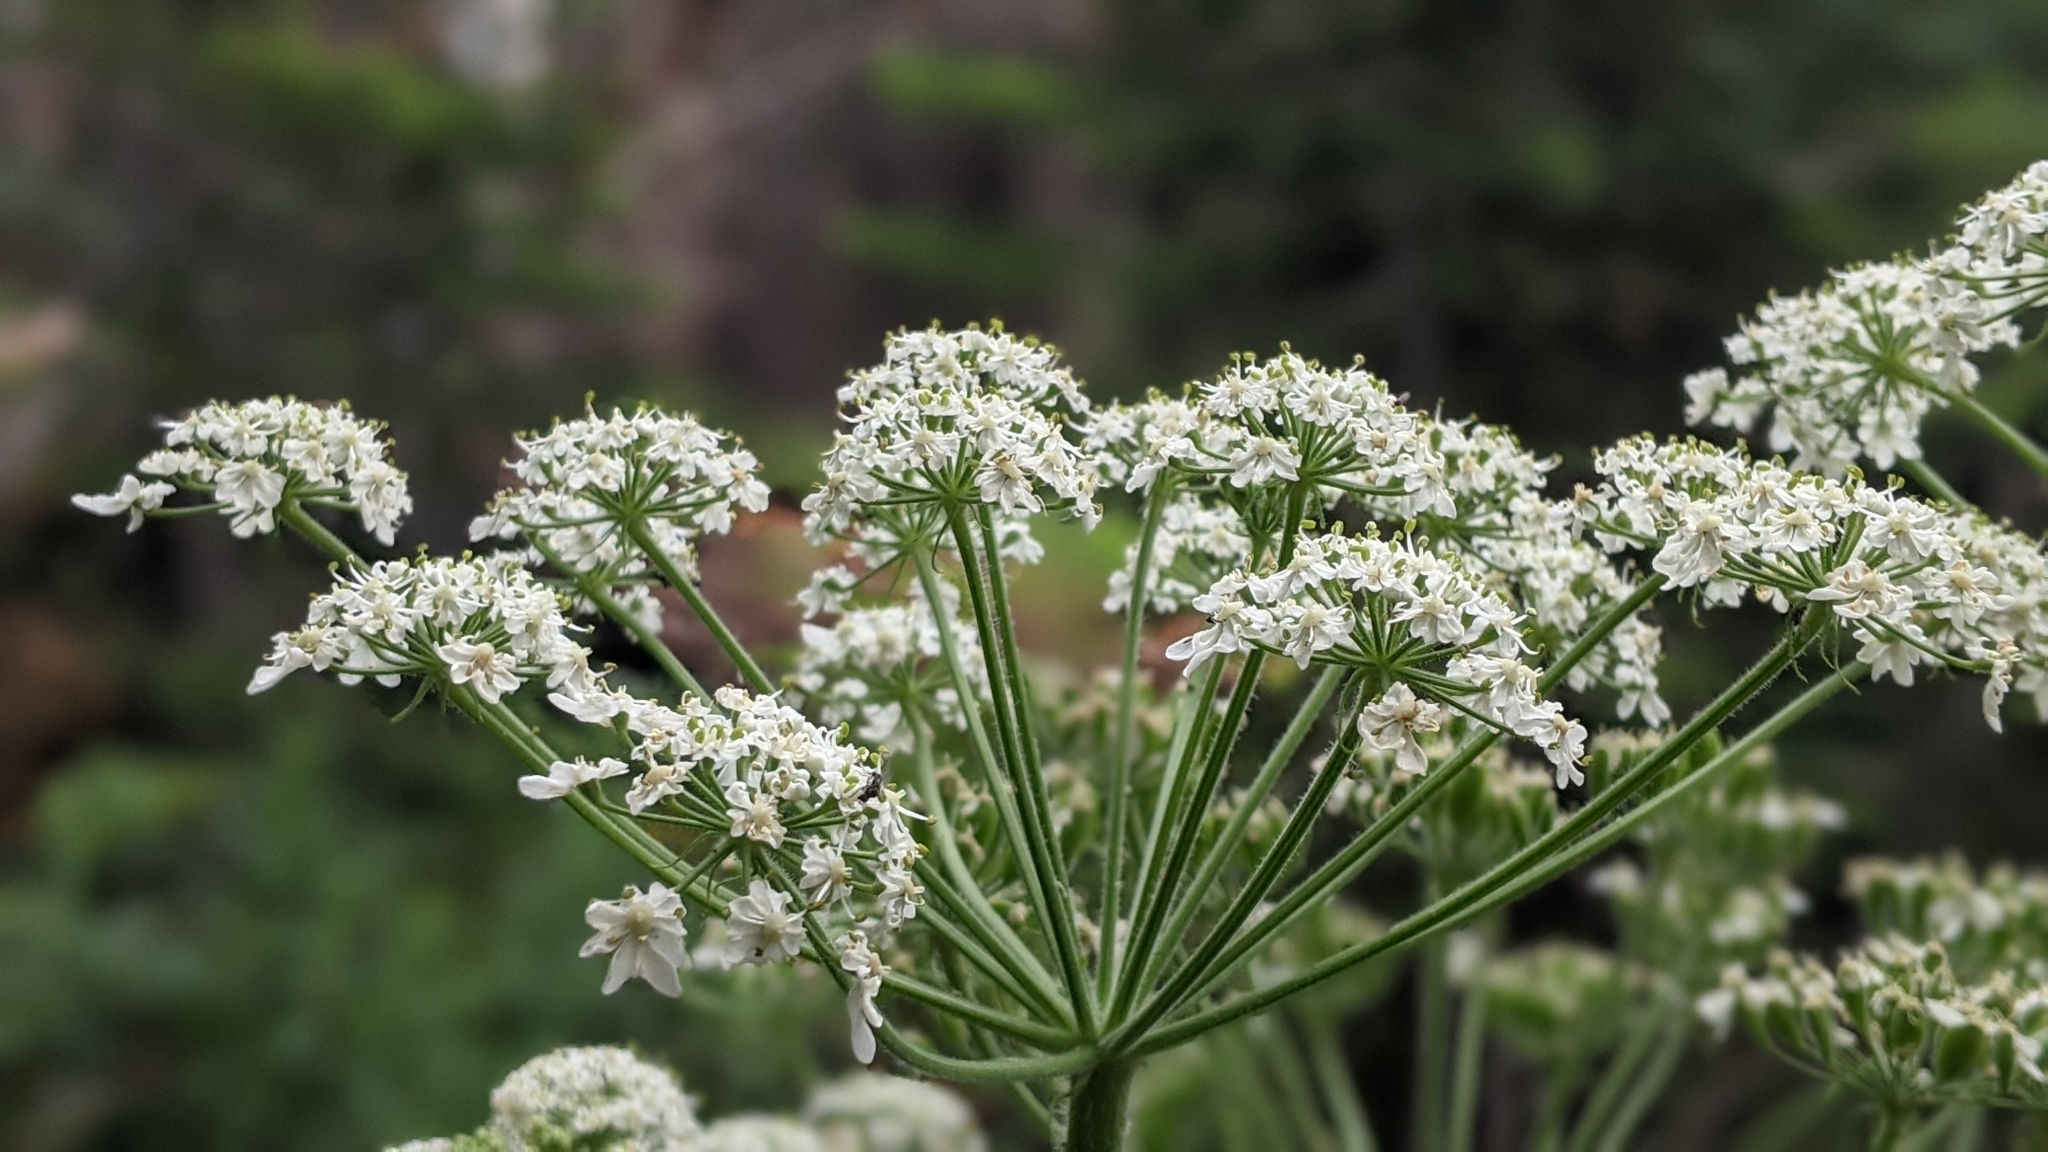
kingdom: Plantae
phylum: Tracheophyta
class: Magnoliopsida
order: Apiales
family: Apiaceae
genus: Heracleum
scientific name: Heracleum maximum
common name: American cow parsnip
